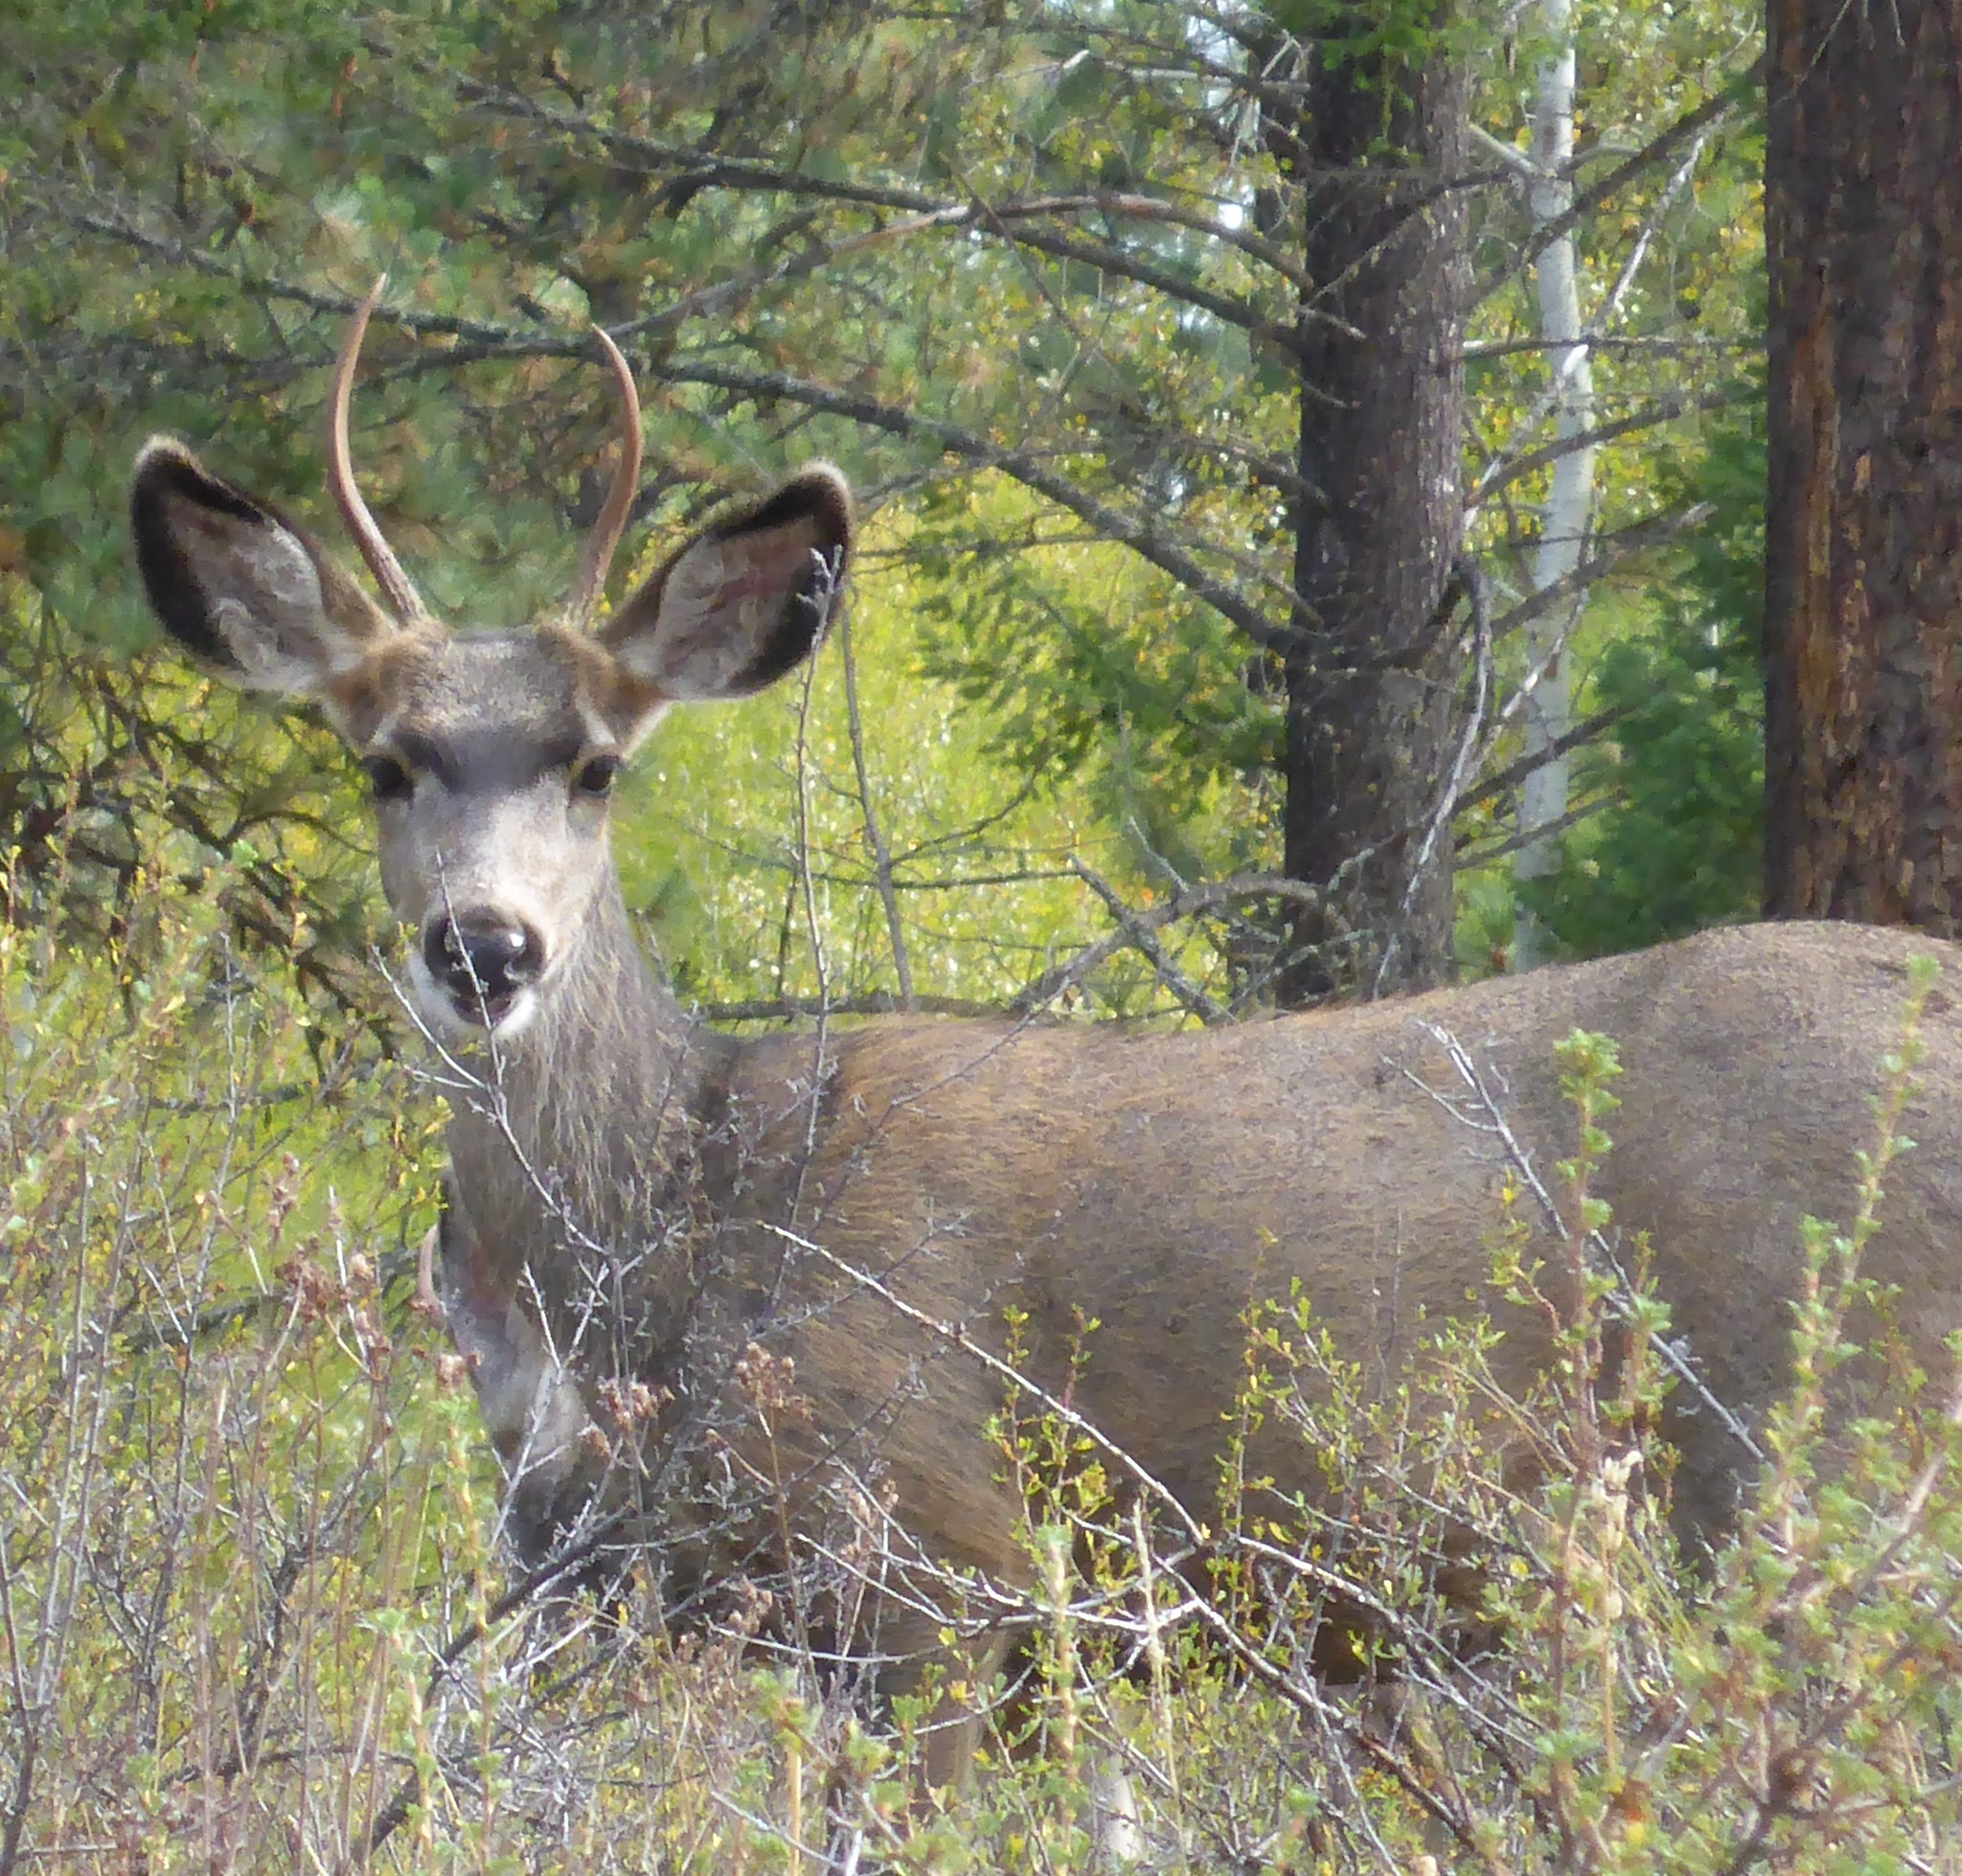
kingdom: Animalia
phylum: Chordata
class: Mammalia
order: Artiodactyla
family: Cervidae
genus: Odocoileus
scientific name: Odocoileus hemionus
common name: Mule deer
